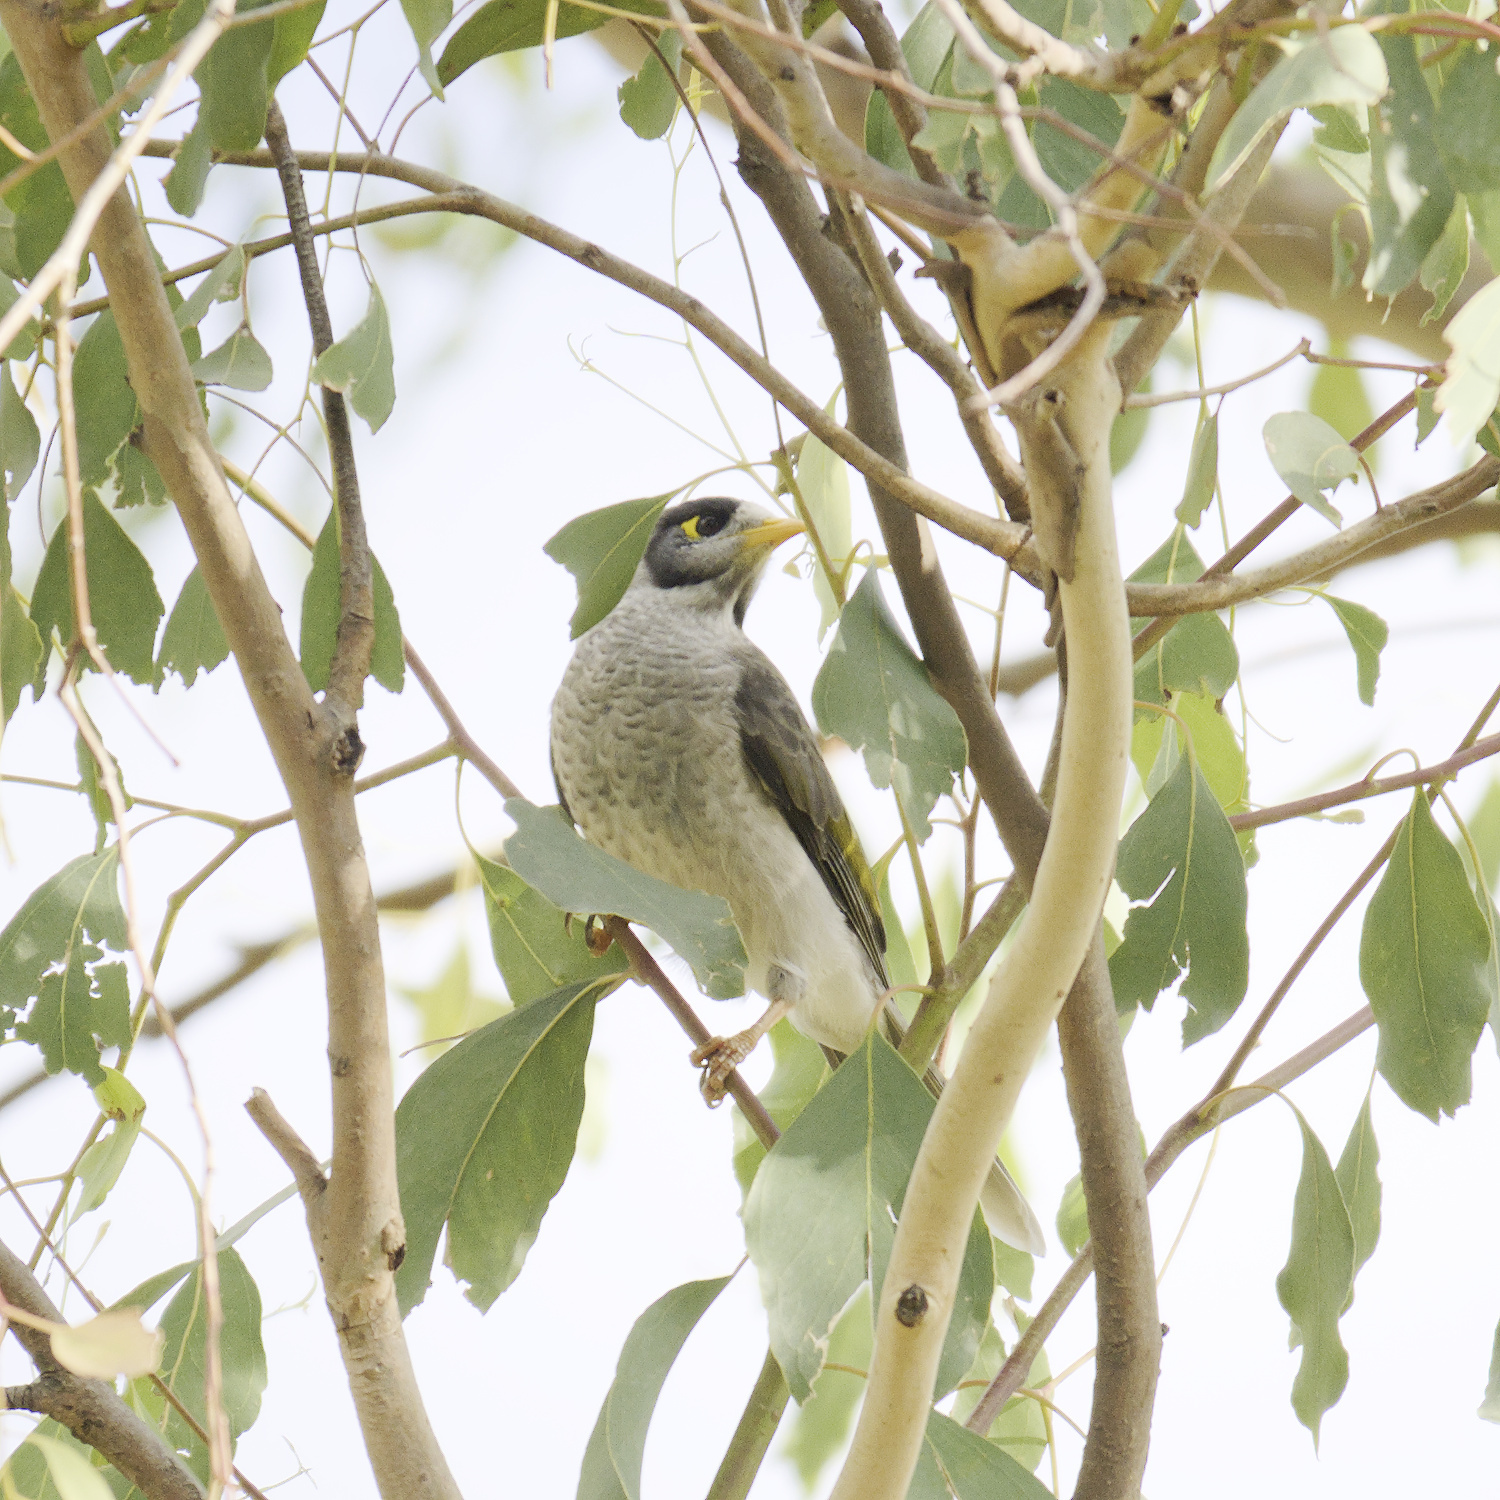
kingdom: Animalia
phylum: Chordata
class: Aves
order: Passeriformes
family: Meliphagidae
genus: Manorina
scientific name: Manorina melanocephala
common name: Noisy miner
